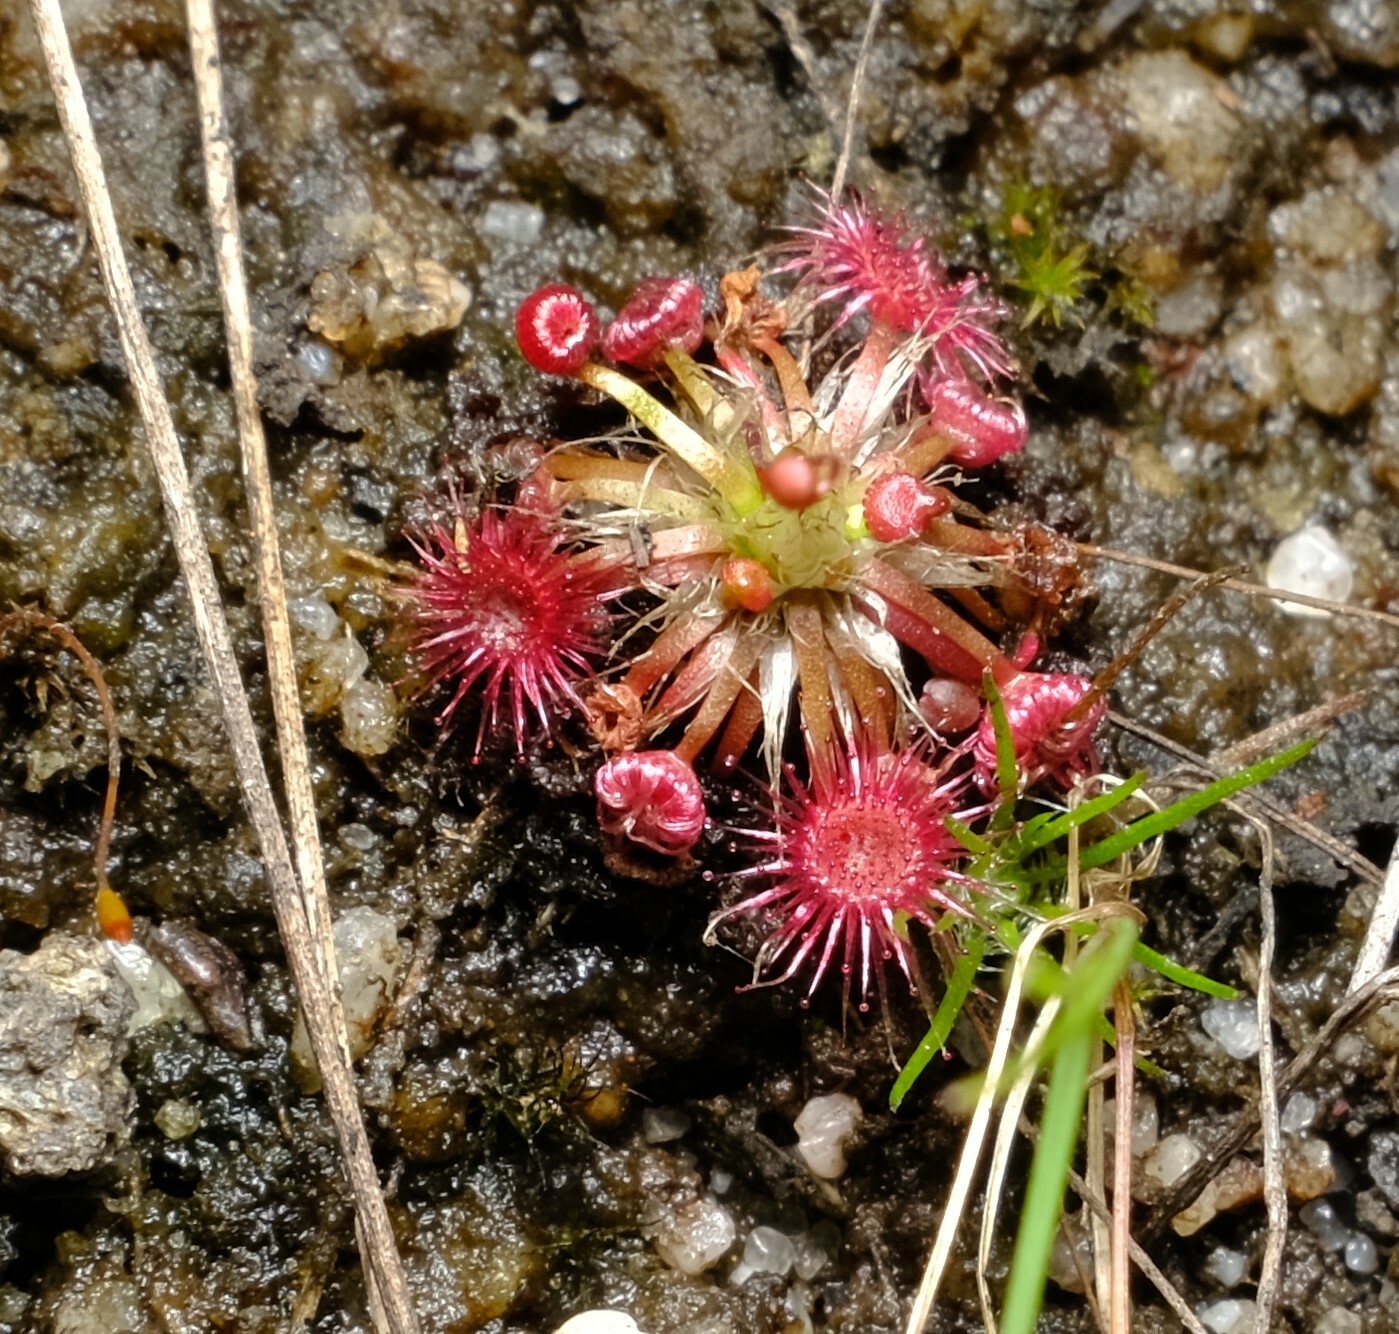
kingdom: Plantae
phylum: Tracheophyta
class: Magnoliopsida
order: Caryophyllales
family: Droseraceae
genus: Drosera
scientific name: Drosera pygmaea
